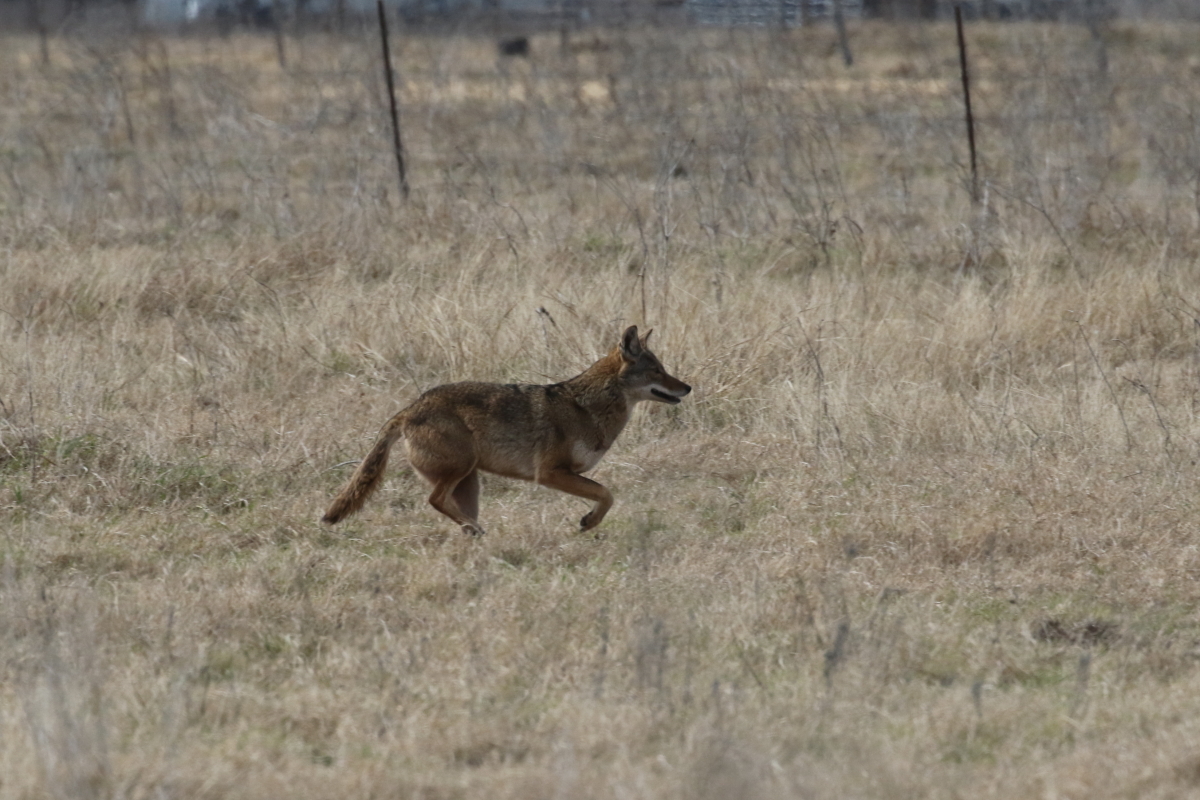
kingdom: Animalia
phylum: Chordata
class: Mammalia
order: Carnivora
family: Canidae
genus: Canis
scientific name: Canis latrans
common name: Coyote
